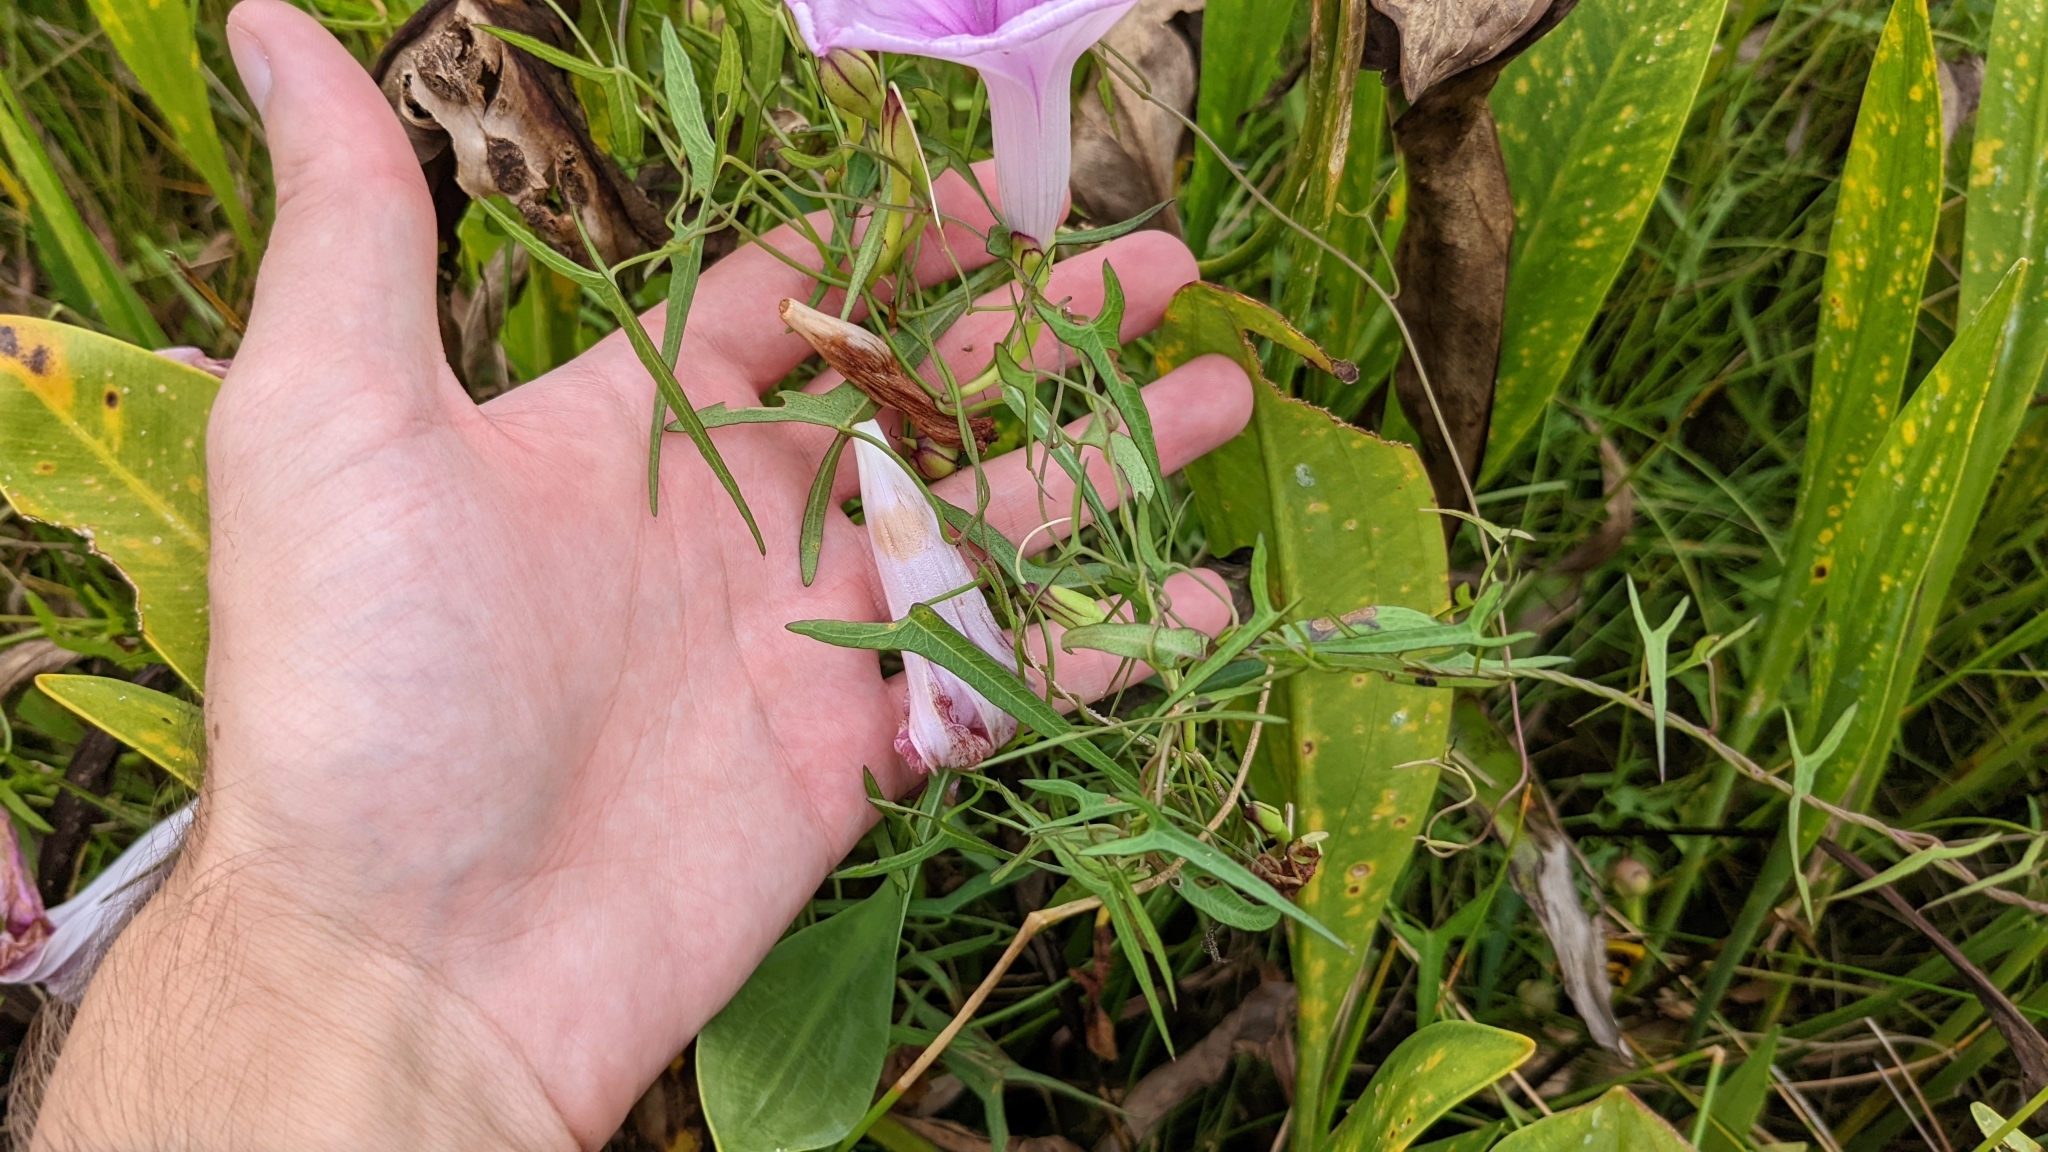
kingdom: Plantae
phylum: Tracheophyta
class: Magnoliopsida
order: Solanales
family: Convolvulaceae
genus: Ipomoea
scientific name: Ipomoea sagittata
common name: Saltmarsh morning glory
